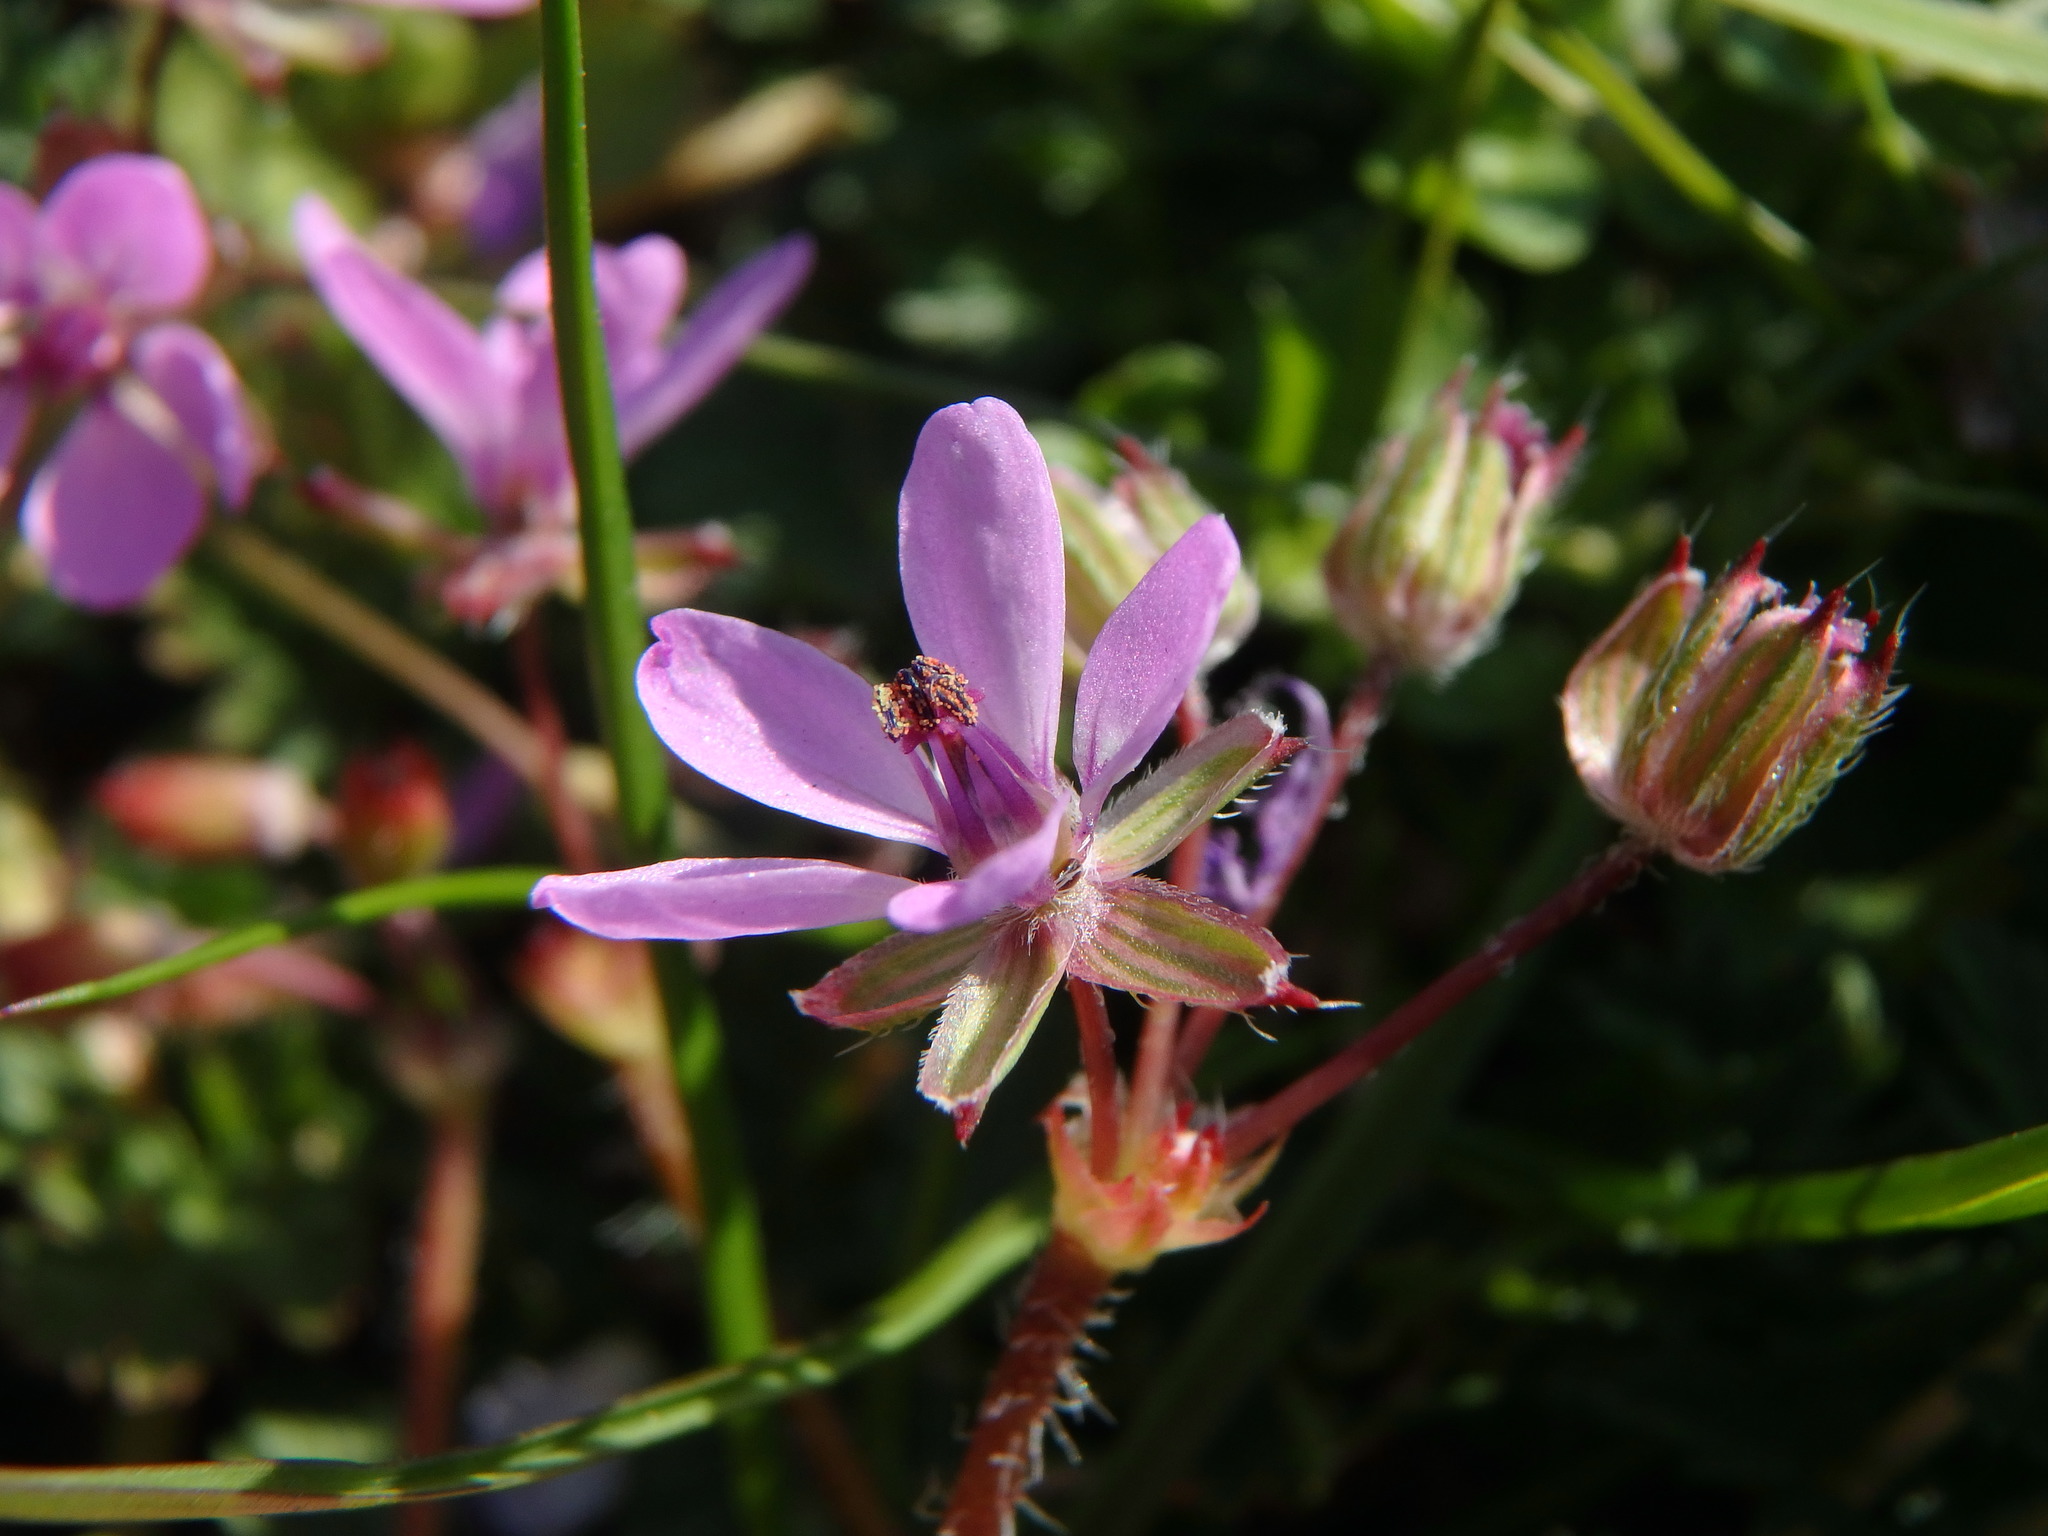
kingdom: Plantae
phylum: Tracheophyta
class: Magnoliopsida
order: Geraniales
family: Geraniaceae
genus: Erodium
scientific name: Erodium cicutarium
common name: Common stork's-bill
